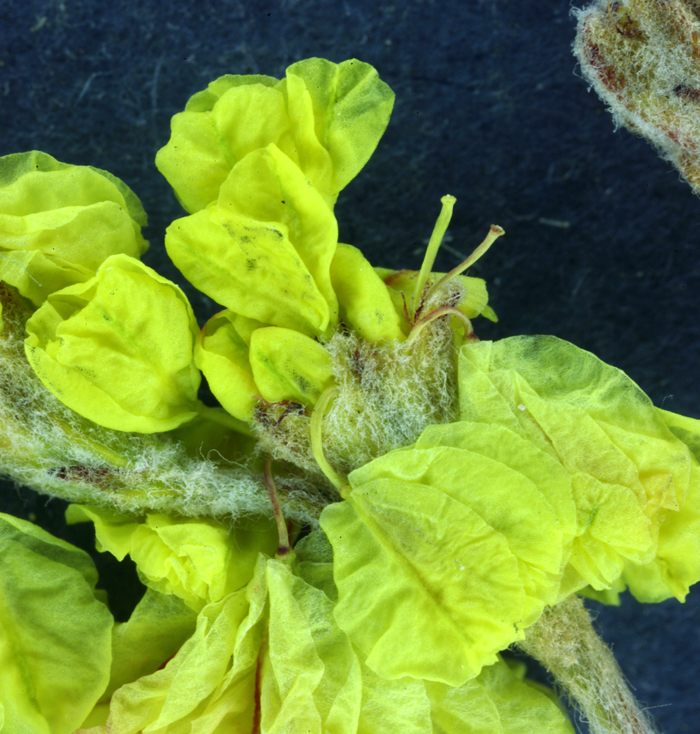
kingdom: Plantae
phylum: Tracheophyta
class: Magnoliopsida
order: Caryophyllales
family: Polygonaceae
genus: Eriogonum
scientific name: Eriogonum strictum
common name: Blue mountain buckwheat
